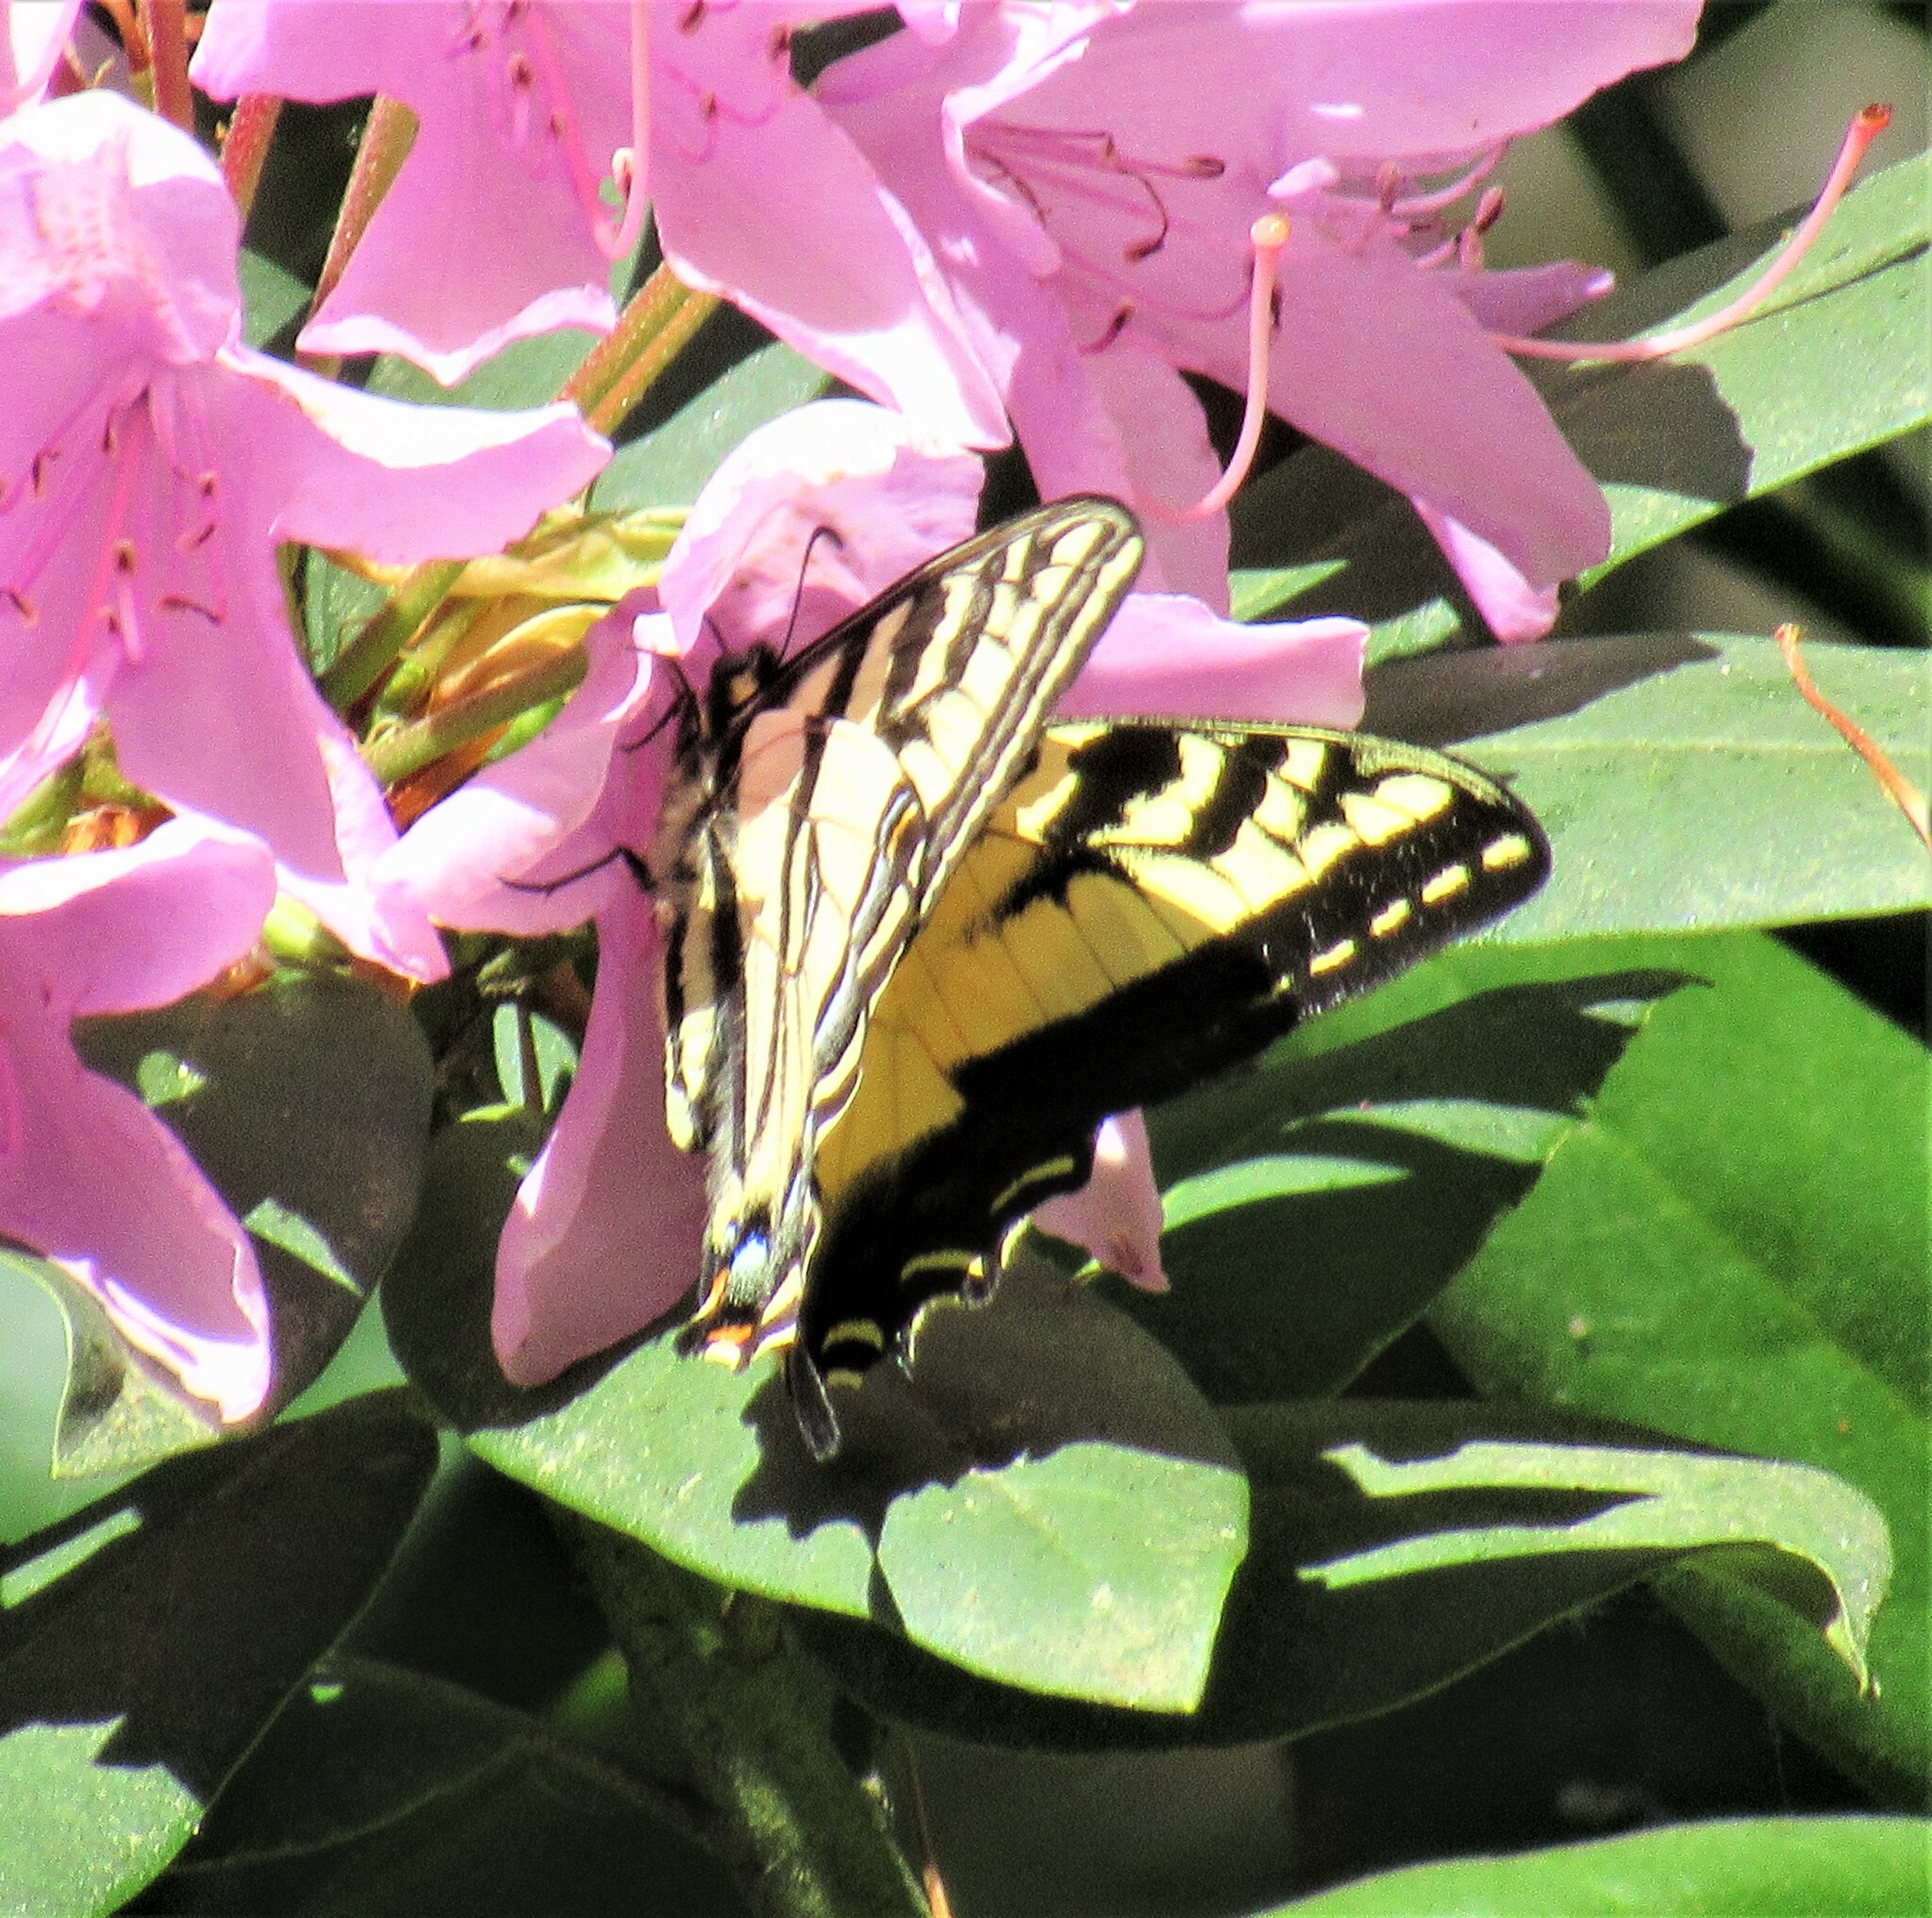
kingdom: Animalia
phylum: Arthropoda
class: Insecta
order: Lepidoptera
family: Papilionidae
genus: Papilio
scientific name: Papilio rutulus
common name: Western tiger swallowtail
